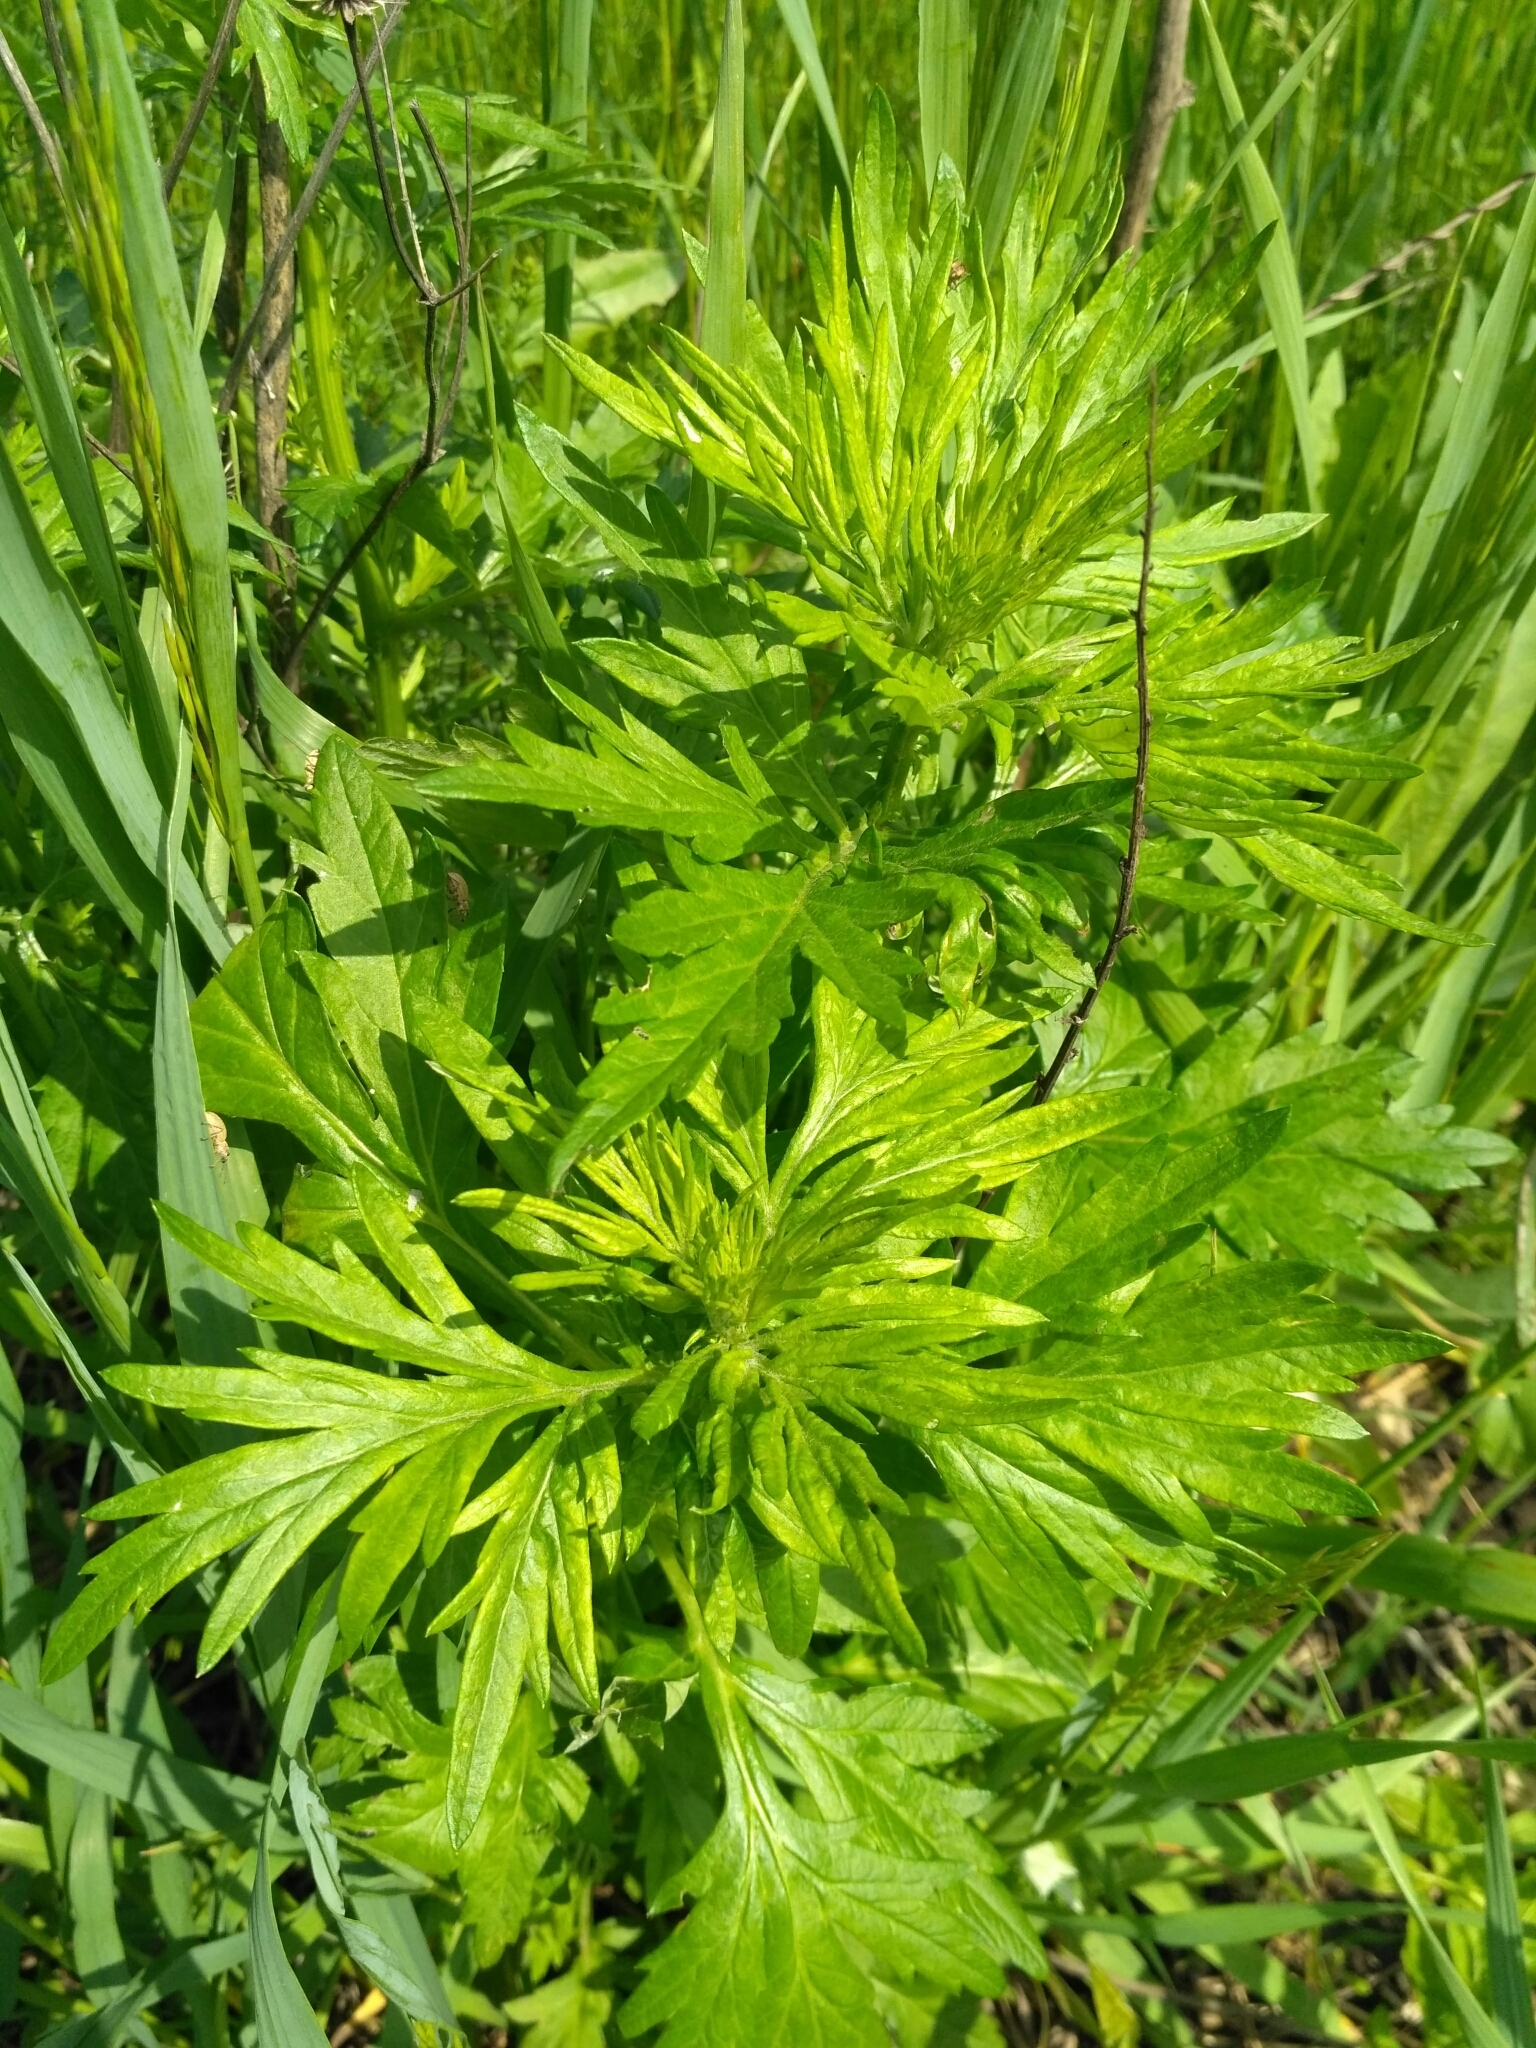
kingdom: Plantae
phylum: Tracheophyta
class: Magnoliopsida
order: Asterales
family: Asteraceae
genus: Artemisia
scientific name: Artemisia vulgaris
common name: Mugwort
